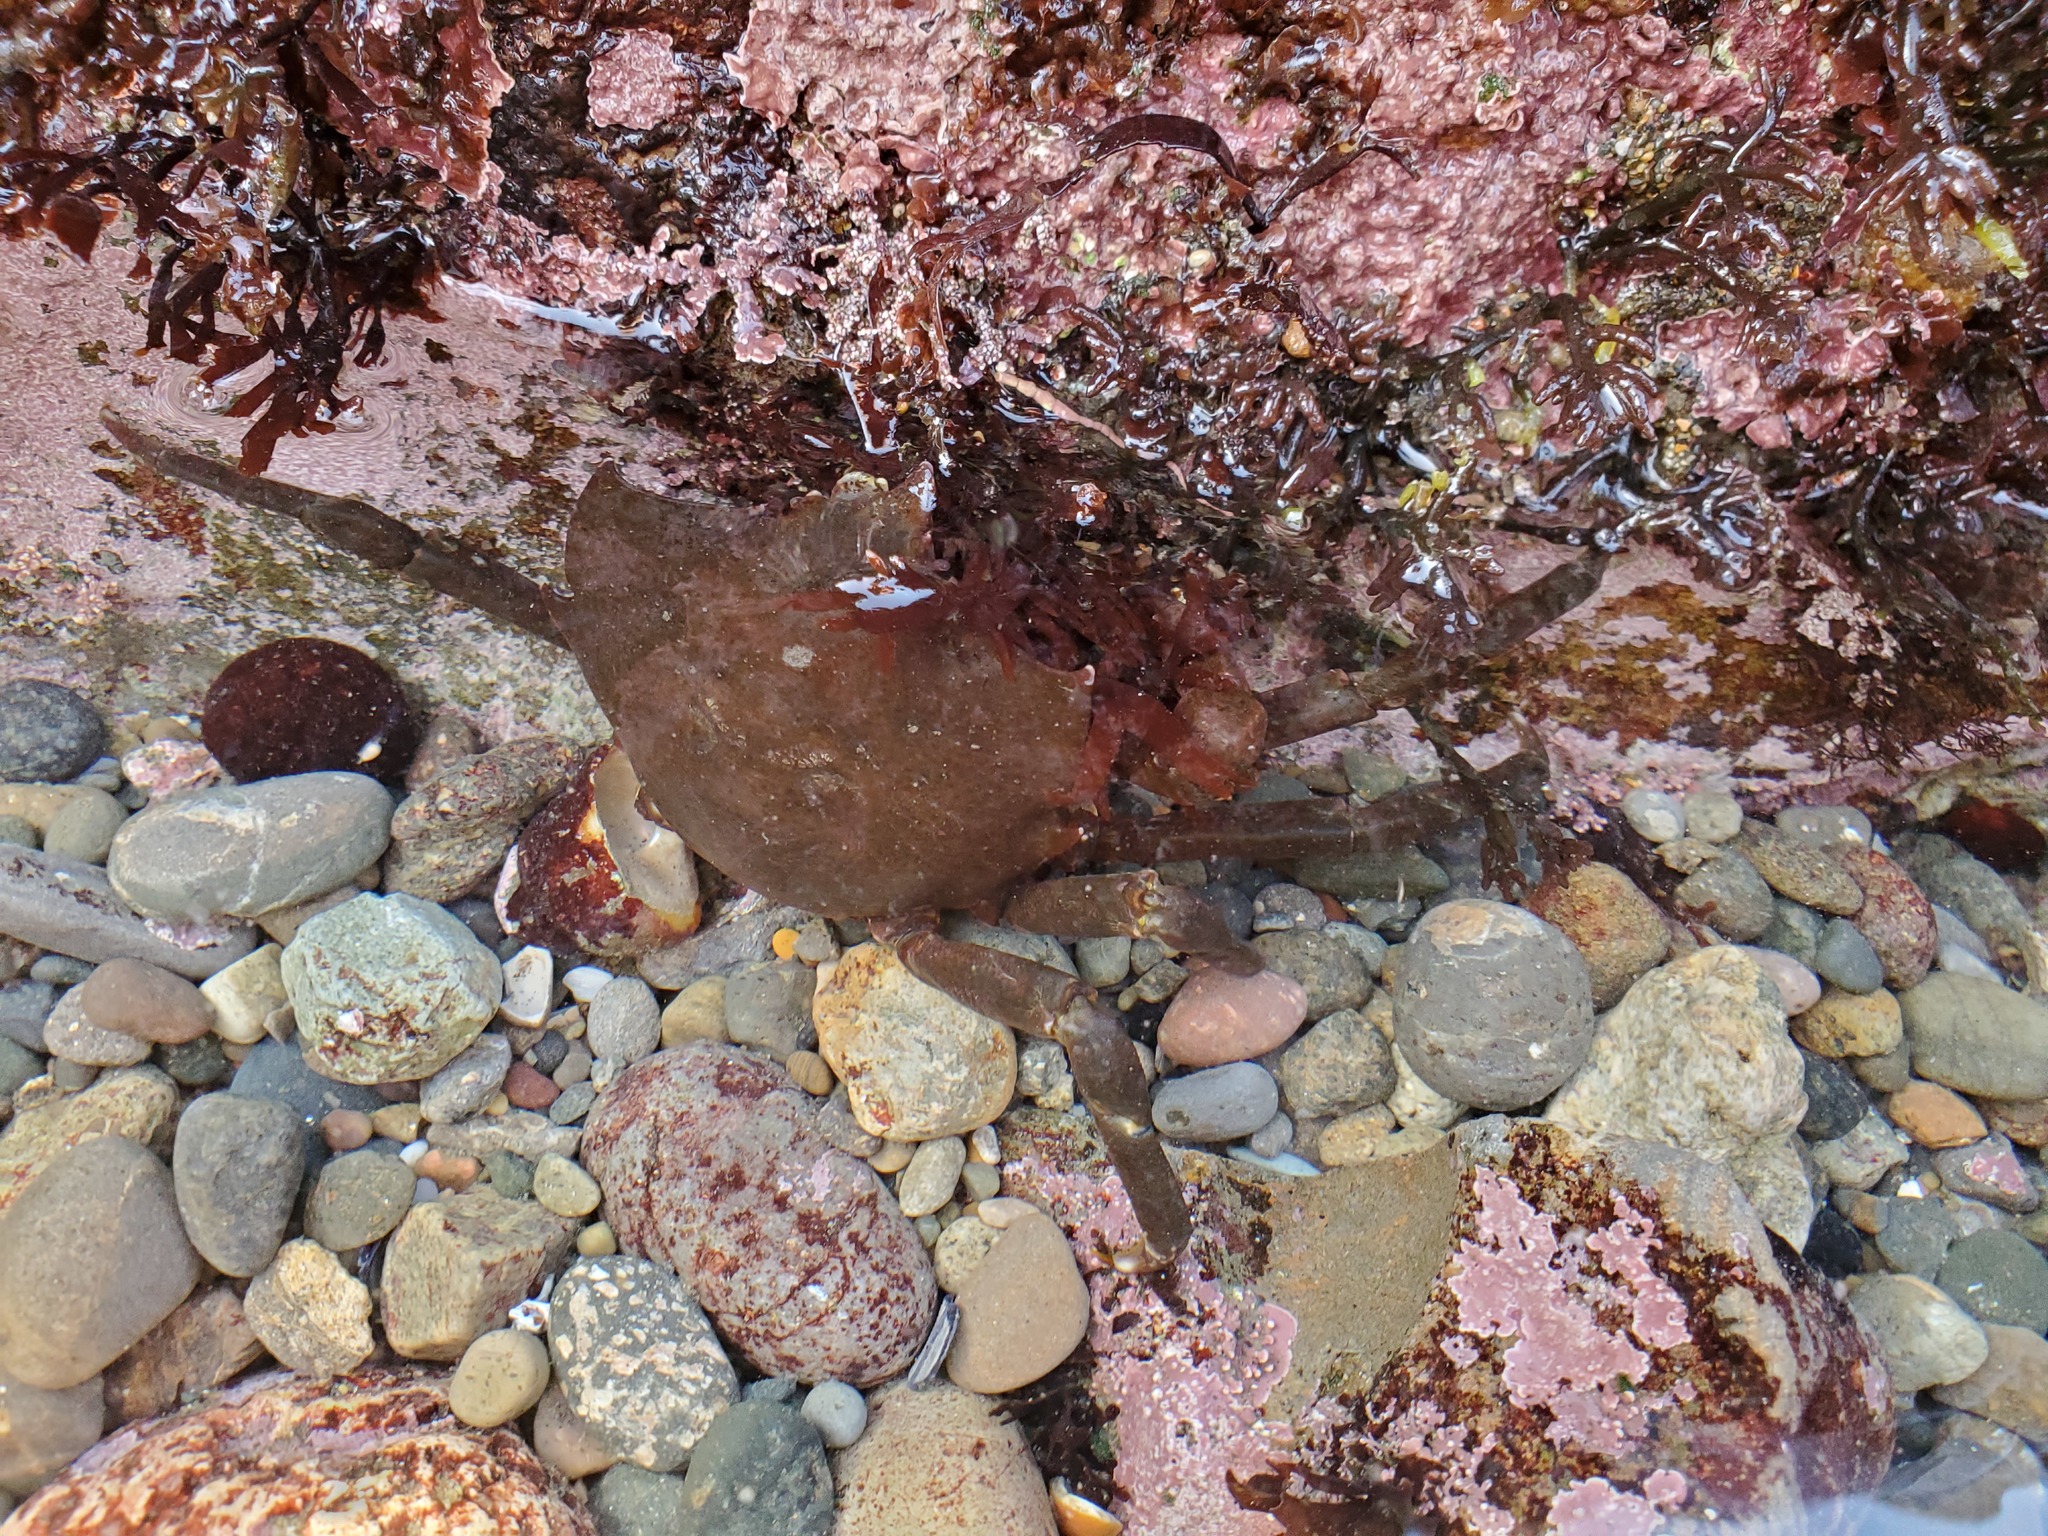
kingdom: Animalia
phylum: Arthropoda
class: Malacostraca
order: Decapoda
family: Epialtidae
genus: Pugettia
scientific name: Pugettia producta
